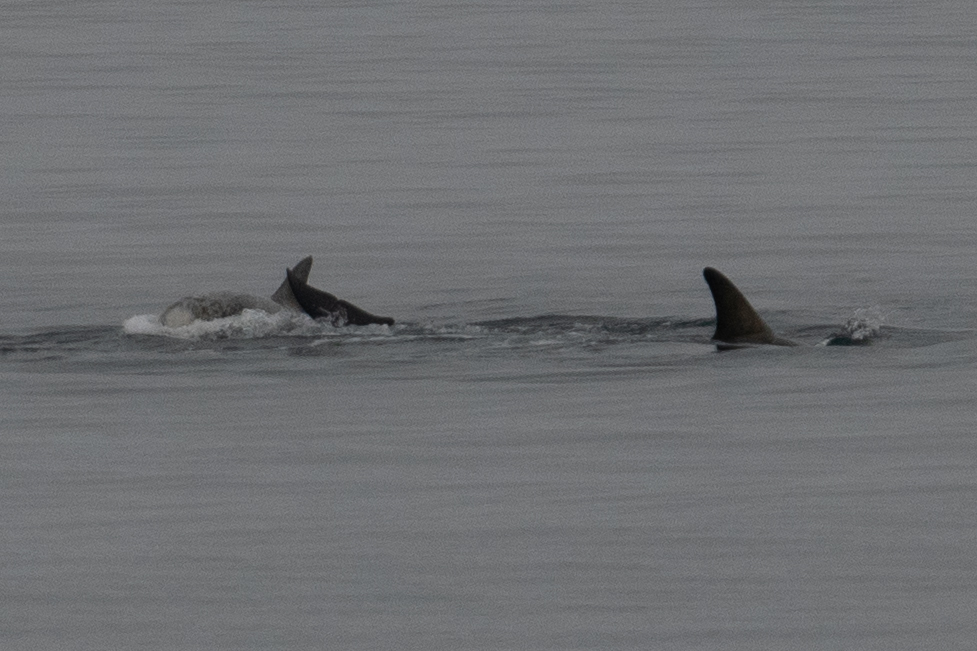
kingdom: Animalia
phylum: Chordata
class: Mammalia
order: Cetacea
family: Delphinidae
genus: Grampus
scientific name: Grampus griseus
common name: Risso's dolphin
